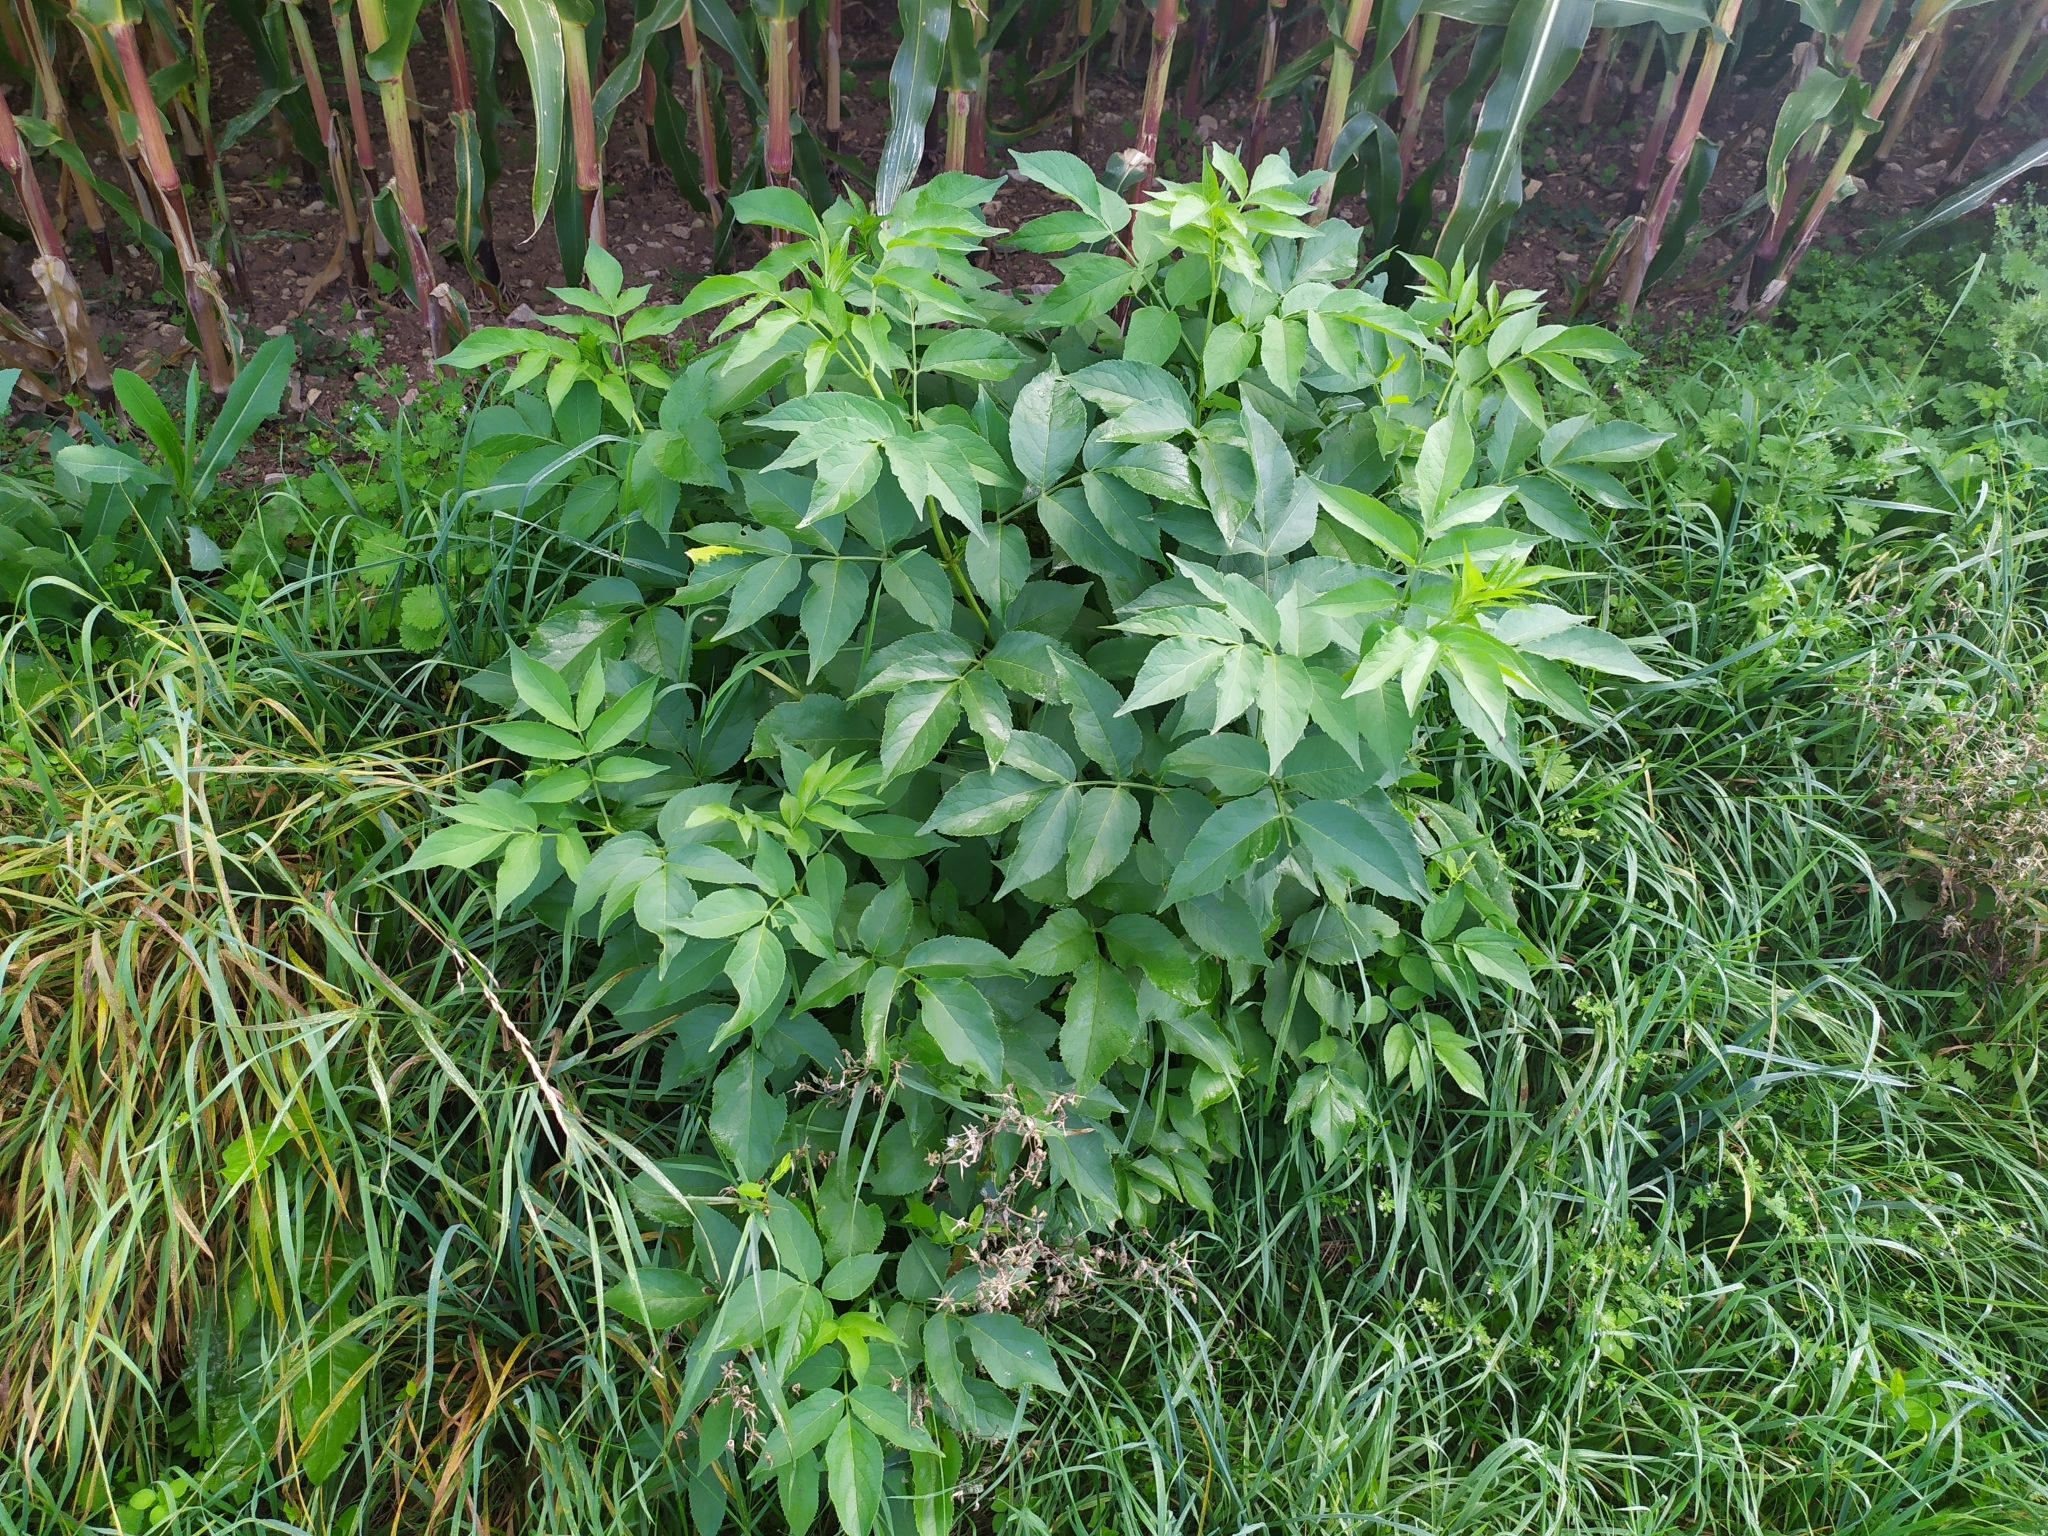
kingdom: Plantae
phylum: Tracheophyta
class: Magnoliopsida
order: Dipsacales
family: Viburnaceae
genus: Sambucus
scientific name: Sambucus nigra
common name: Elder
